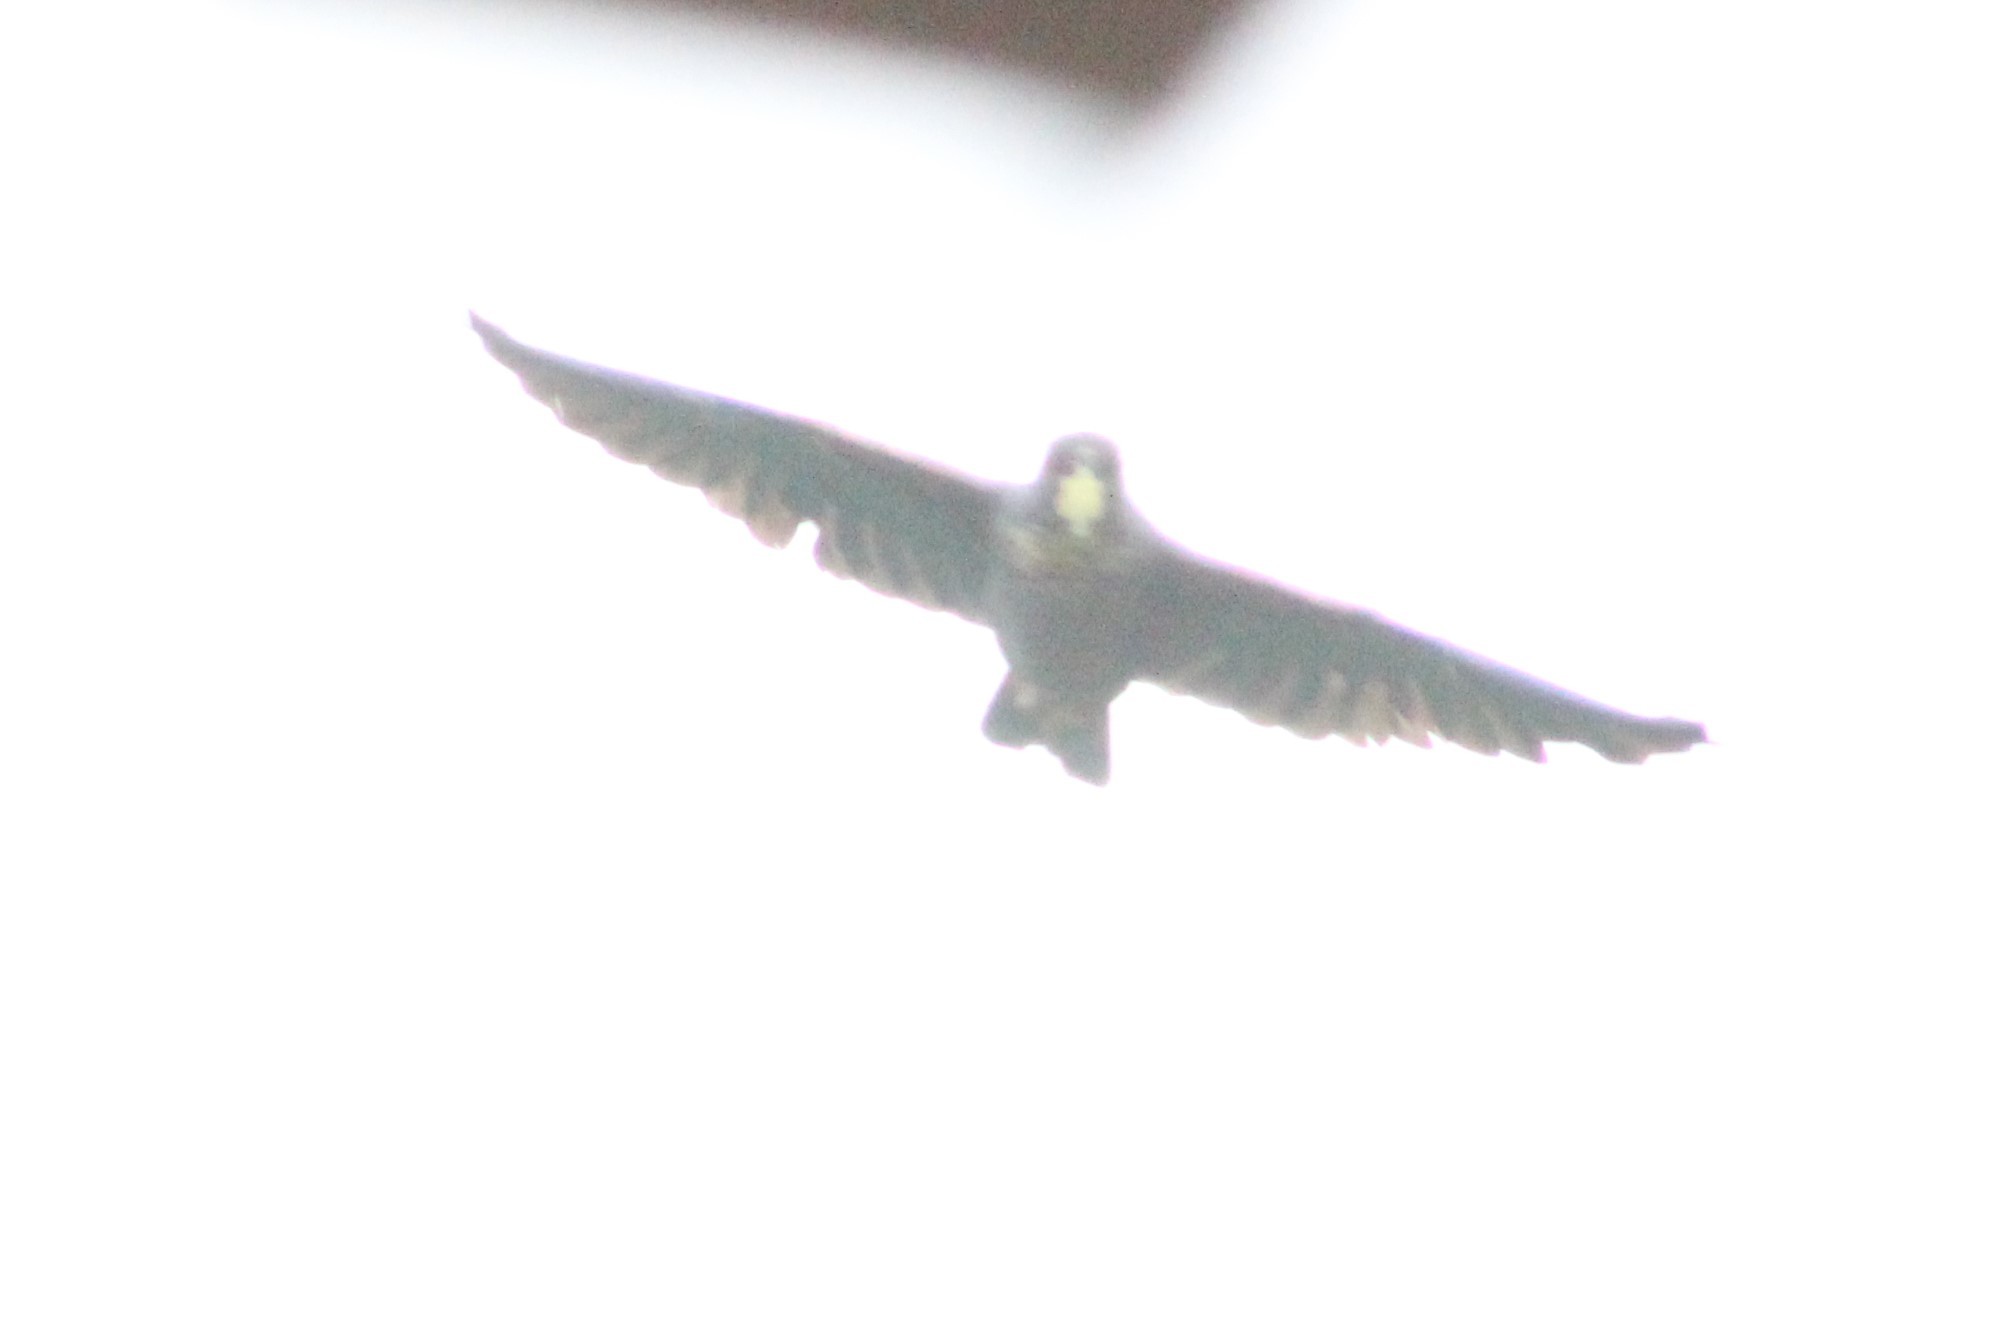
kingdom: Animalia
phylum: Chordata
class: Aves
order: Psittaciformes
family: Psittacidae
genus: Pionus
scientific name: Pionus chalcopterus
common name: Bronze-winged parrot
